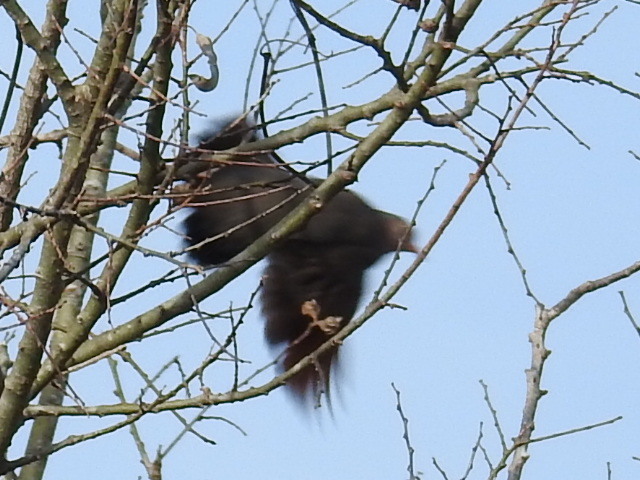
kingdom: Animalia
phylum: Chordata
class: Aves
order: Columbiformes
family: Columbidae
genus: Columbina
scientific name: Columbina passerina
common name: Common ground-dove
